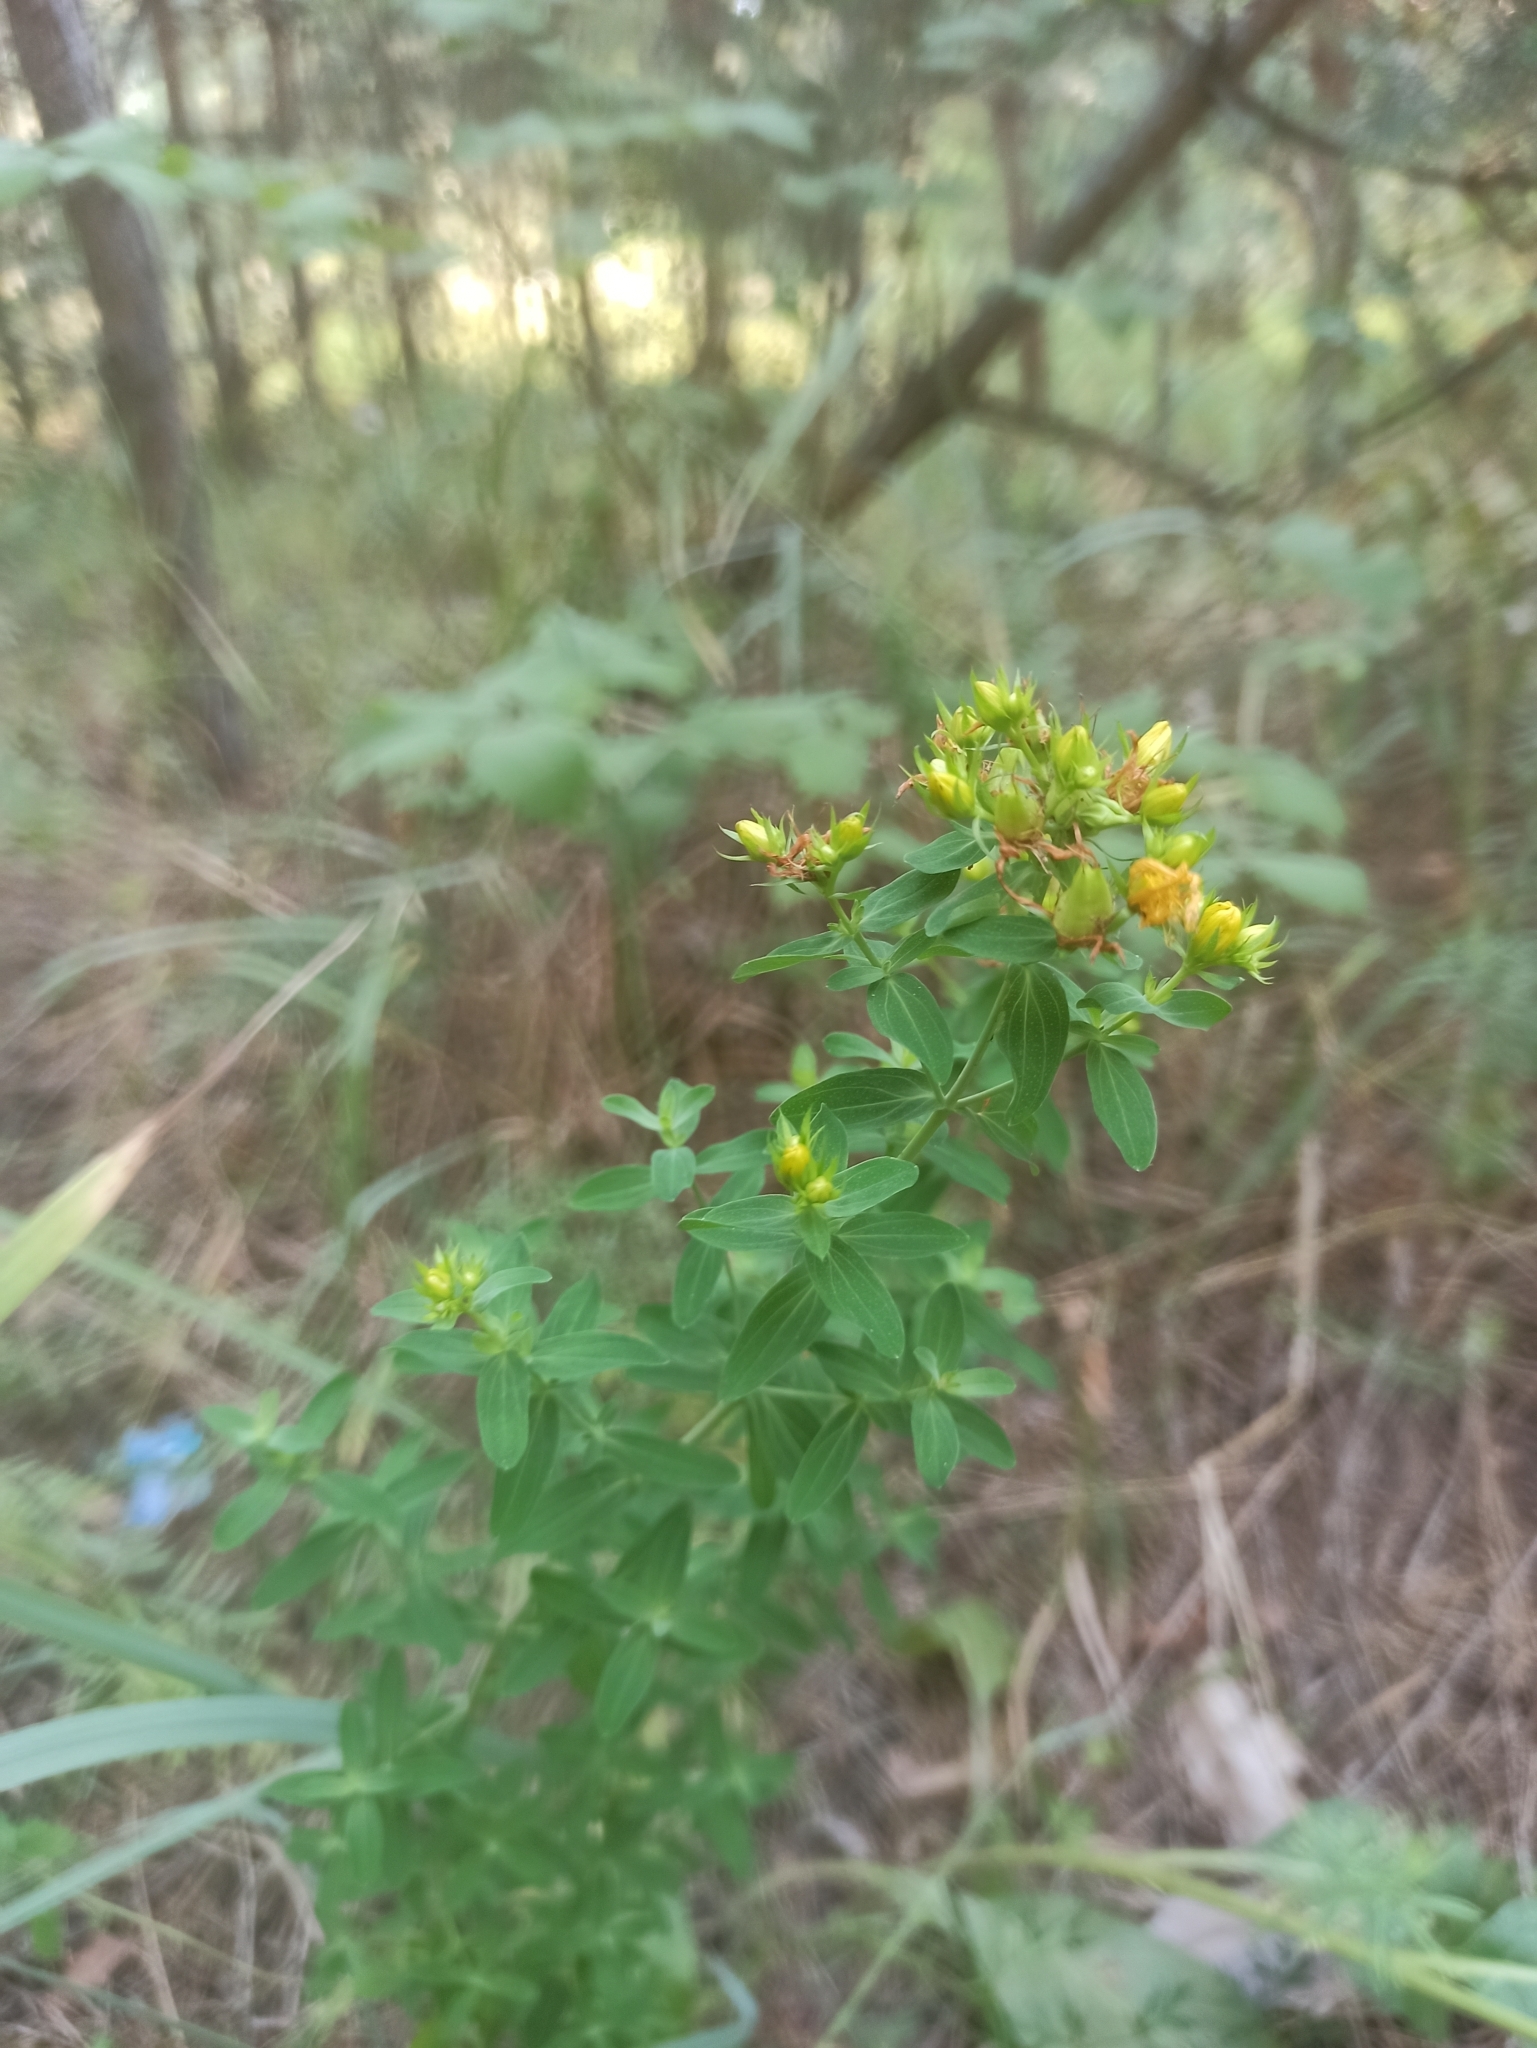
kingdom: Plantae
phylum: Tracheophyta
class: Magnoliopsida
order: Malpighiales
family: Hypericaceae
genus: Hypericum
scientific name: Hypericum perforatum
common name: Common st. johnswort
